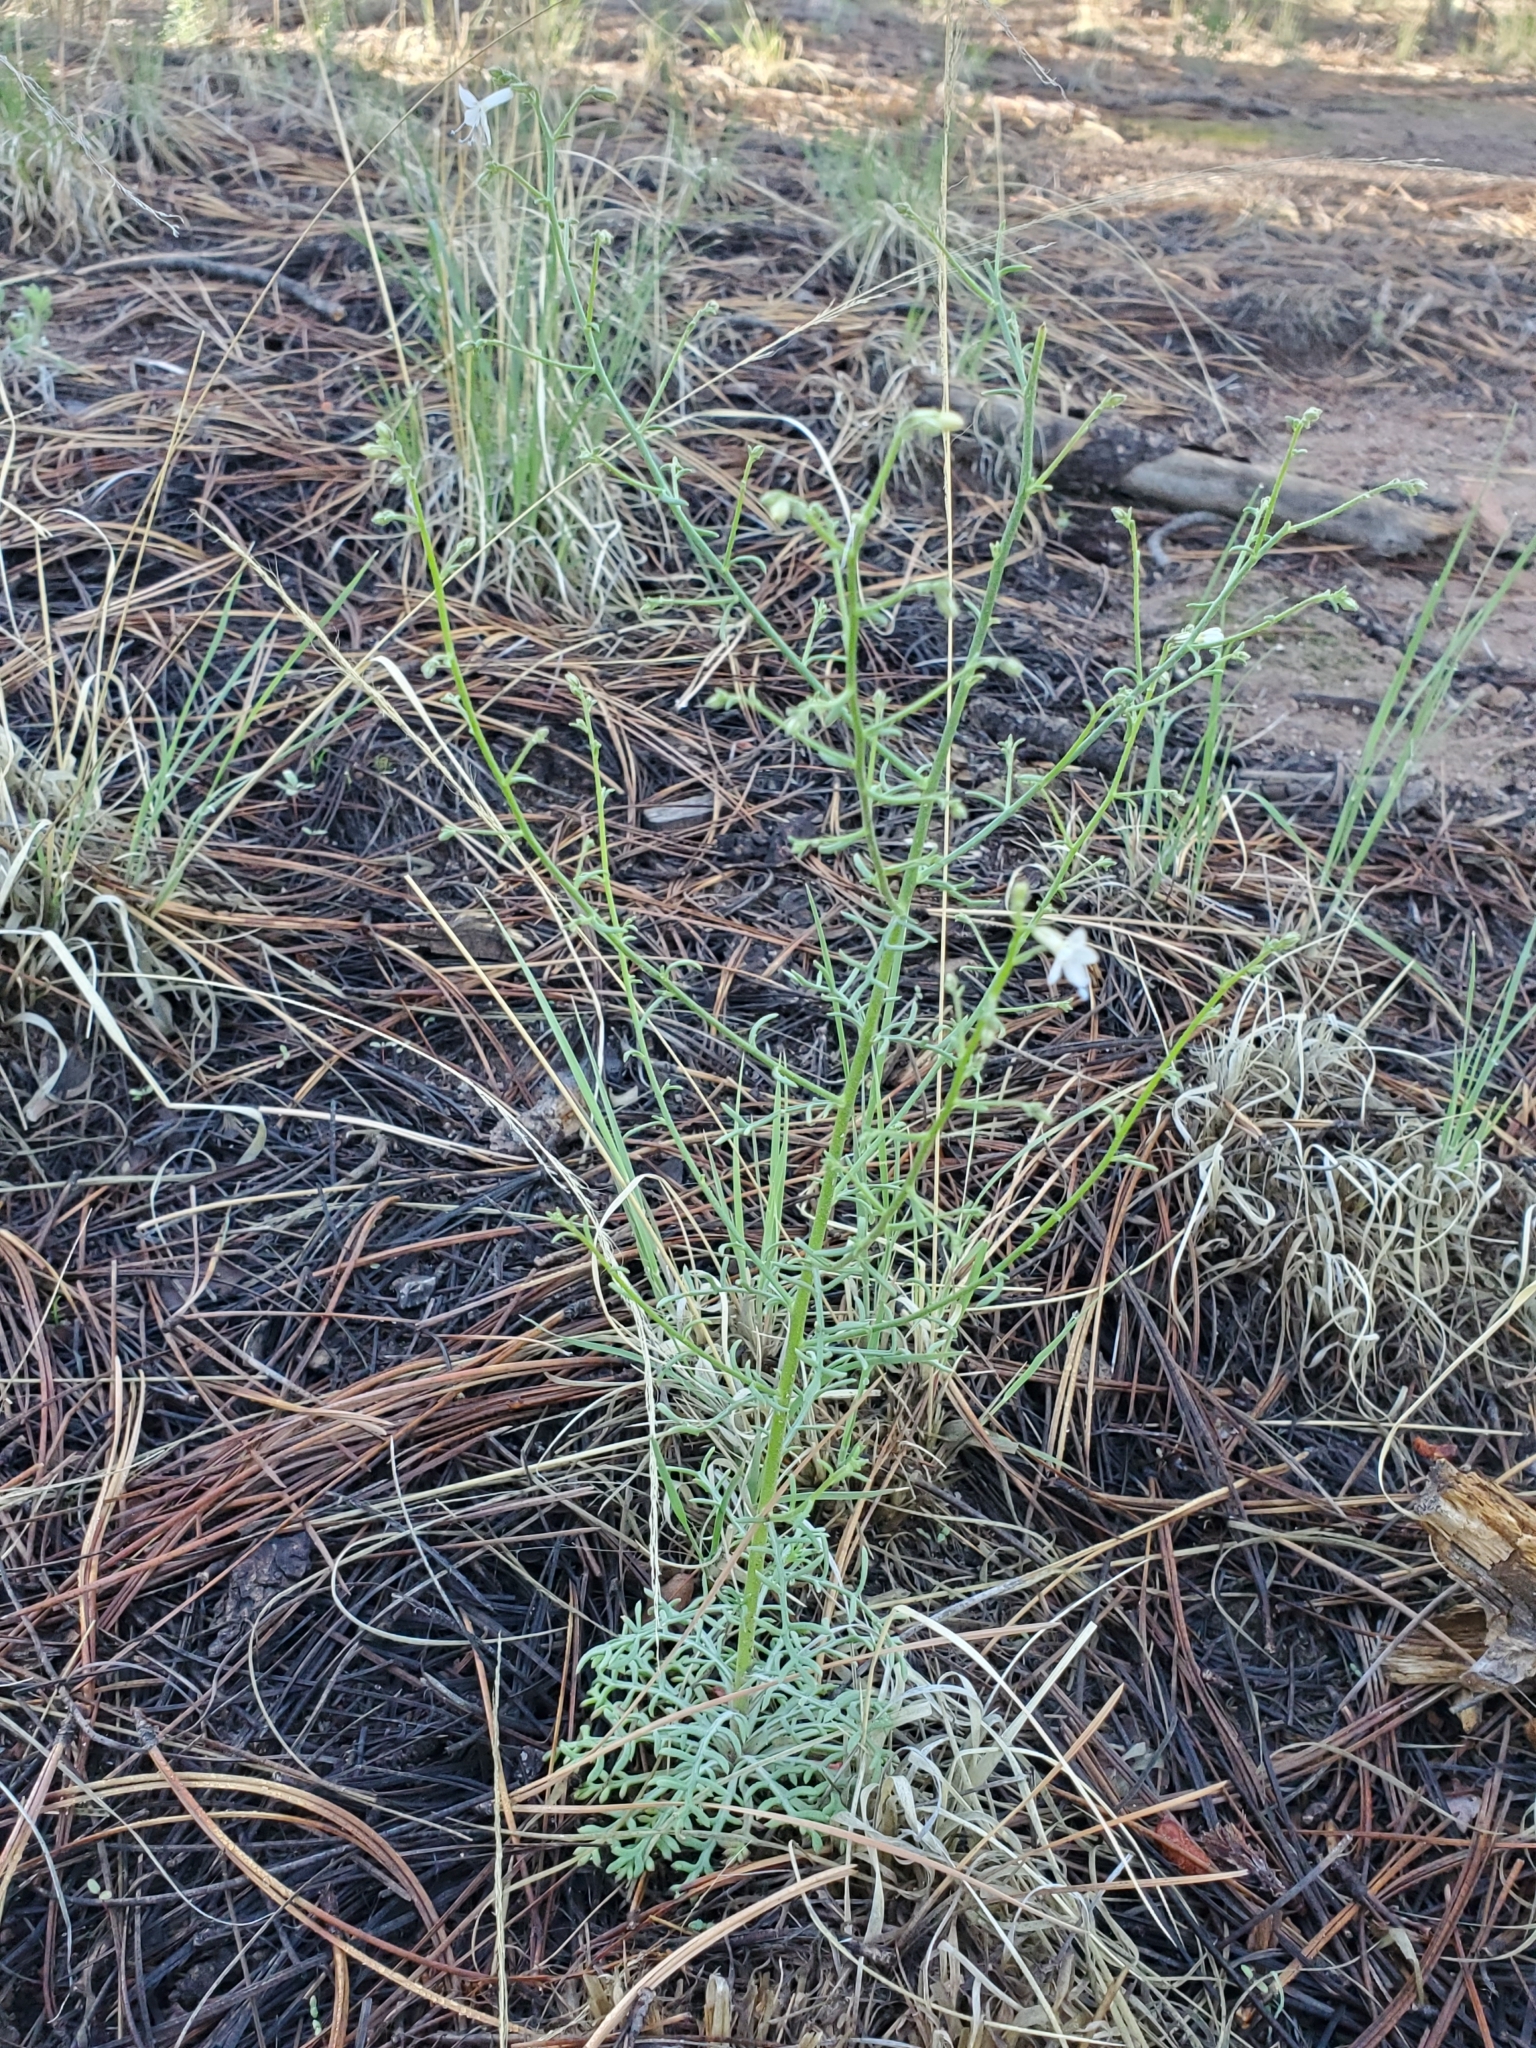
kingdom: Plantae
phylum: Tracheophyta
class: Magnoliopsida
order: Ericales
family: Polemoniaceae
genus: Aliciella
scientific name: Aliciella pinnatifida
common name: Sticky gilia
